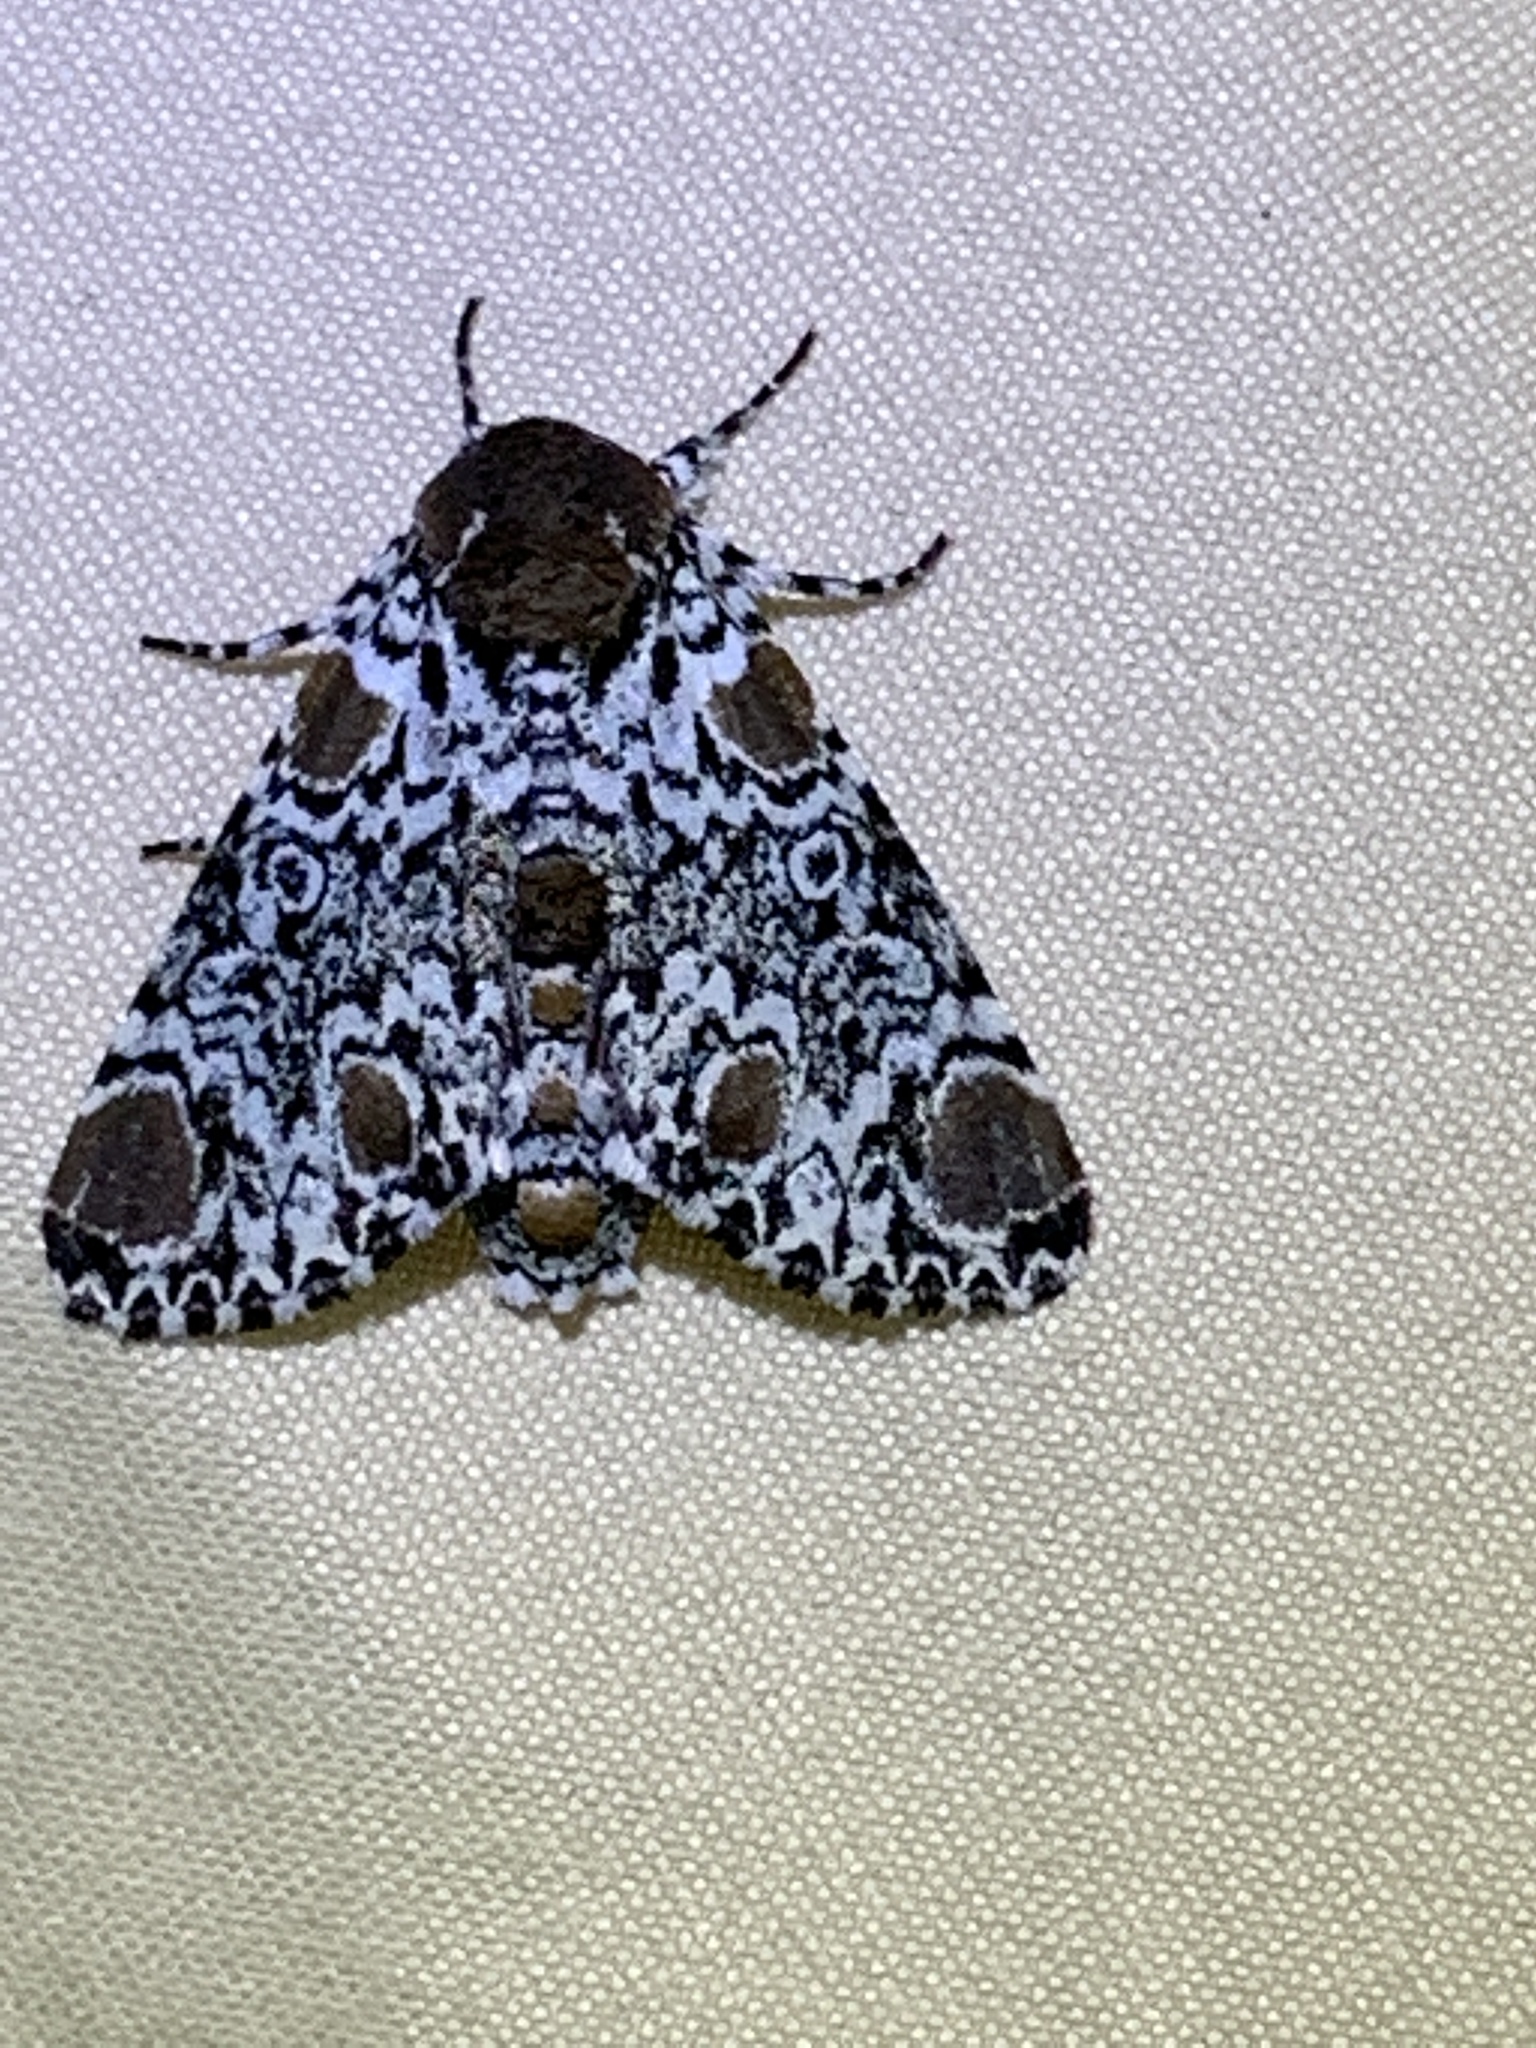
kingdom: Animalia
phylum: Arthropoda
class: Insecta
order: Lepidoptera
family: Noctuidae
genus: Harrisimemna
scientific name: Harrisimemna trisignata
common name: Harris threespot
